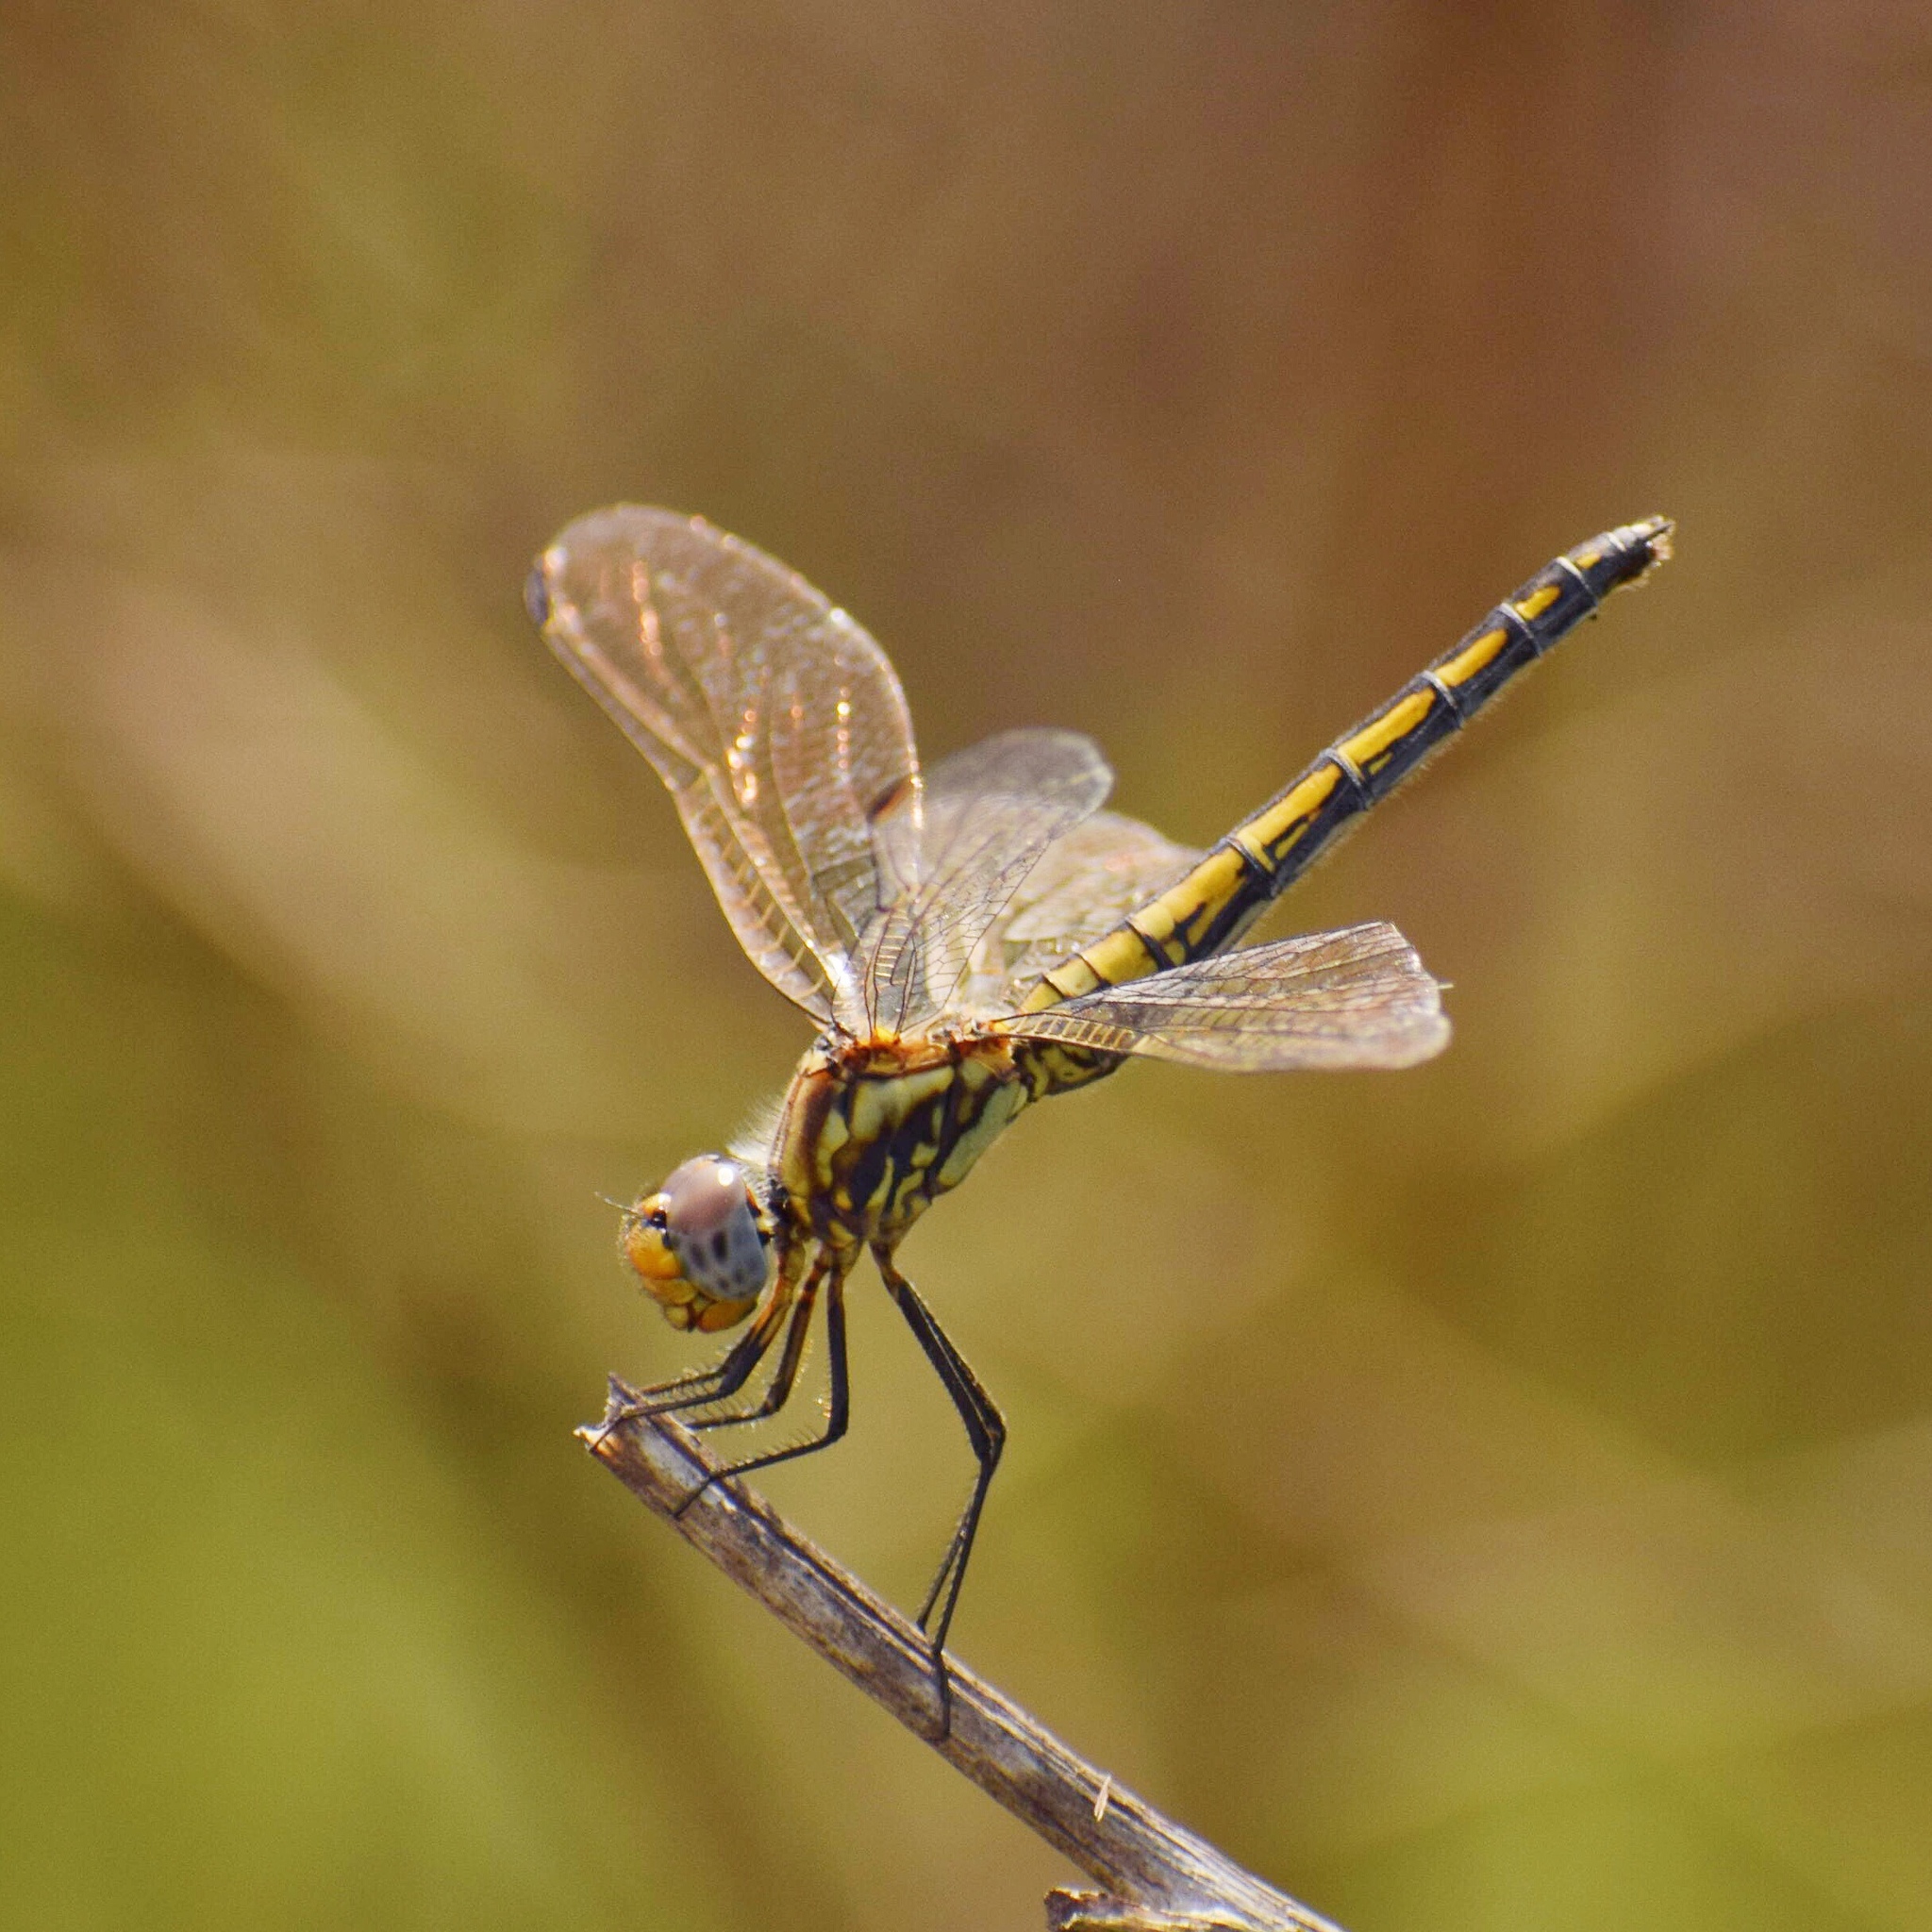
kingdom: Animalia
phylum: Arthropoda
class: Insecta
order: Odonata
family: Libellulidae
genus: Trithemis
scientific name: Trithemis furva
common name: Dark dropwing
